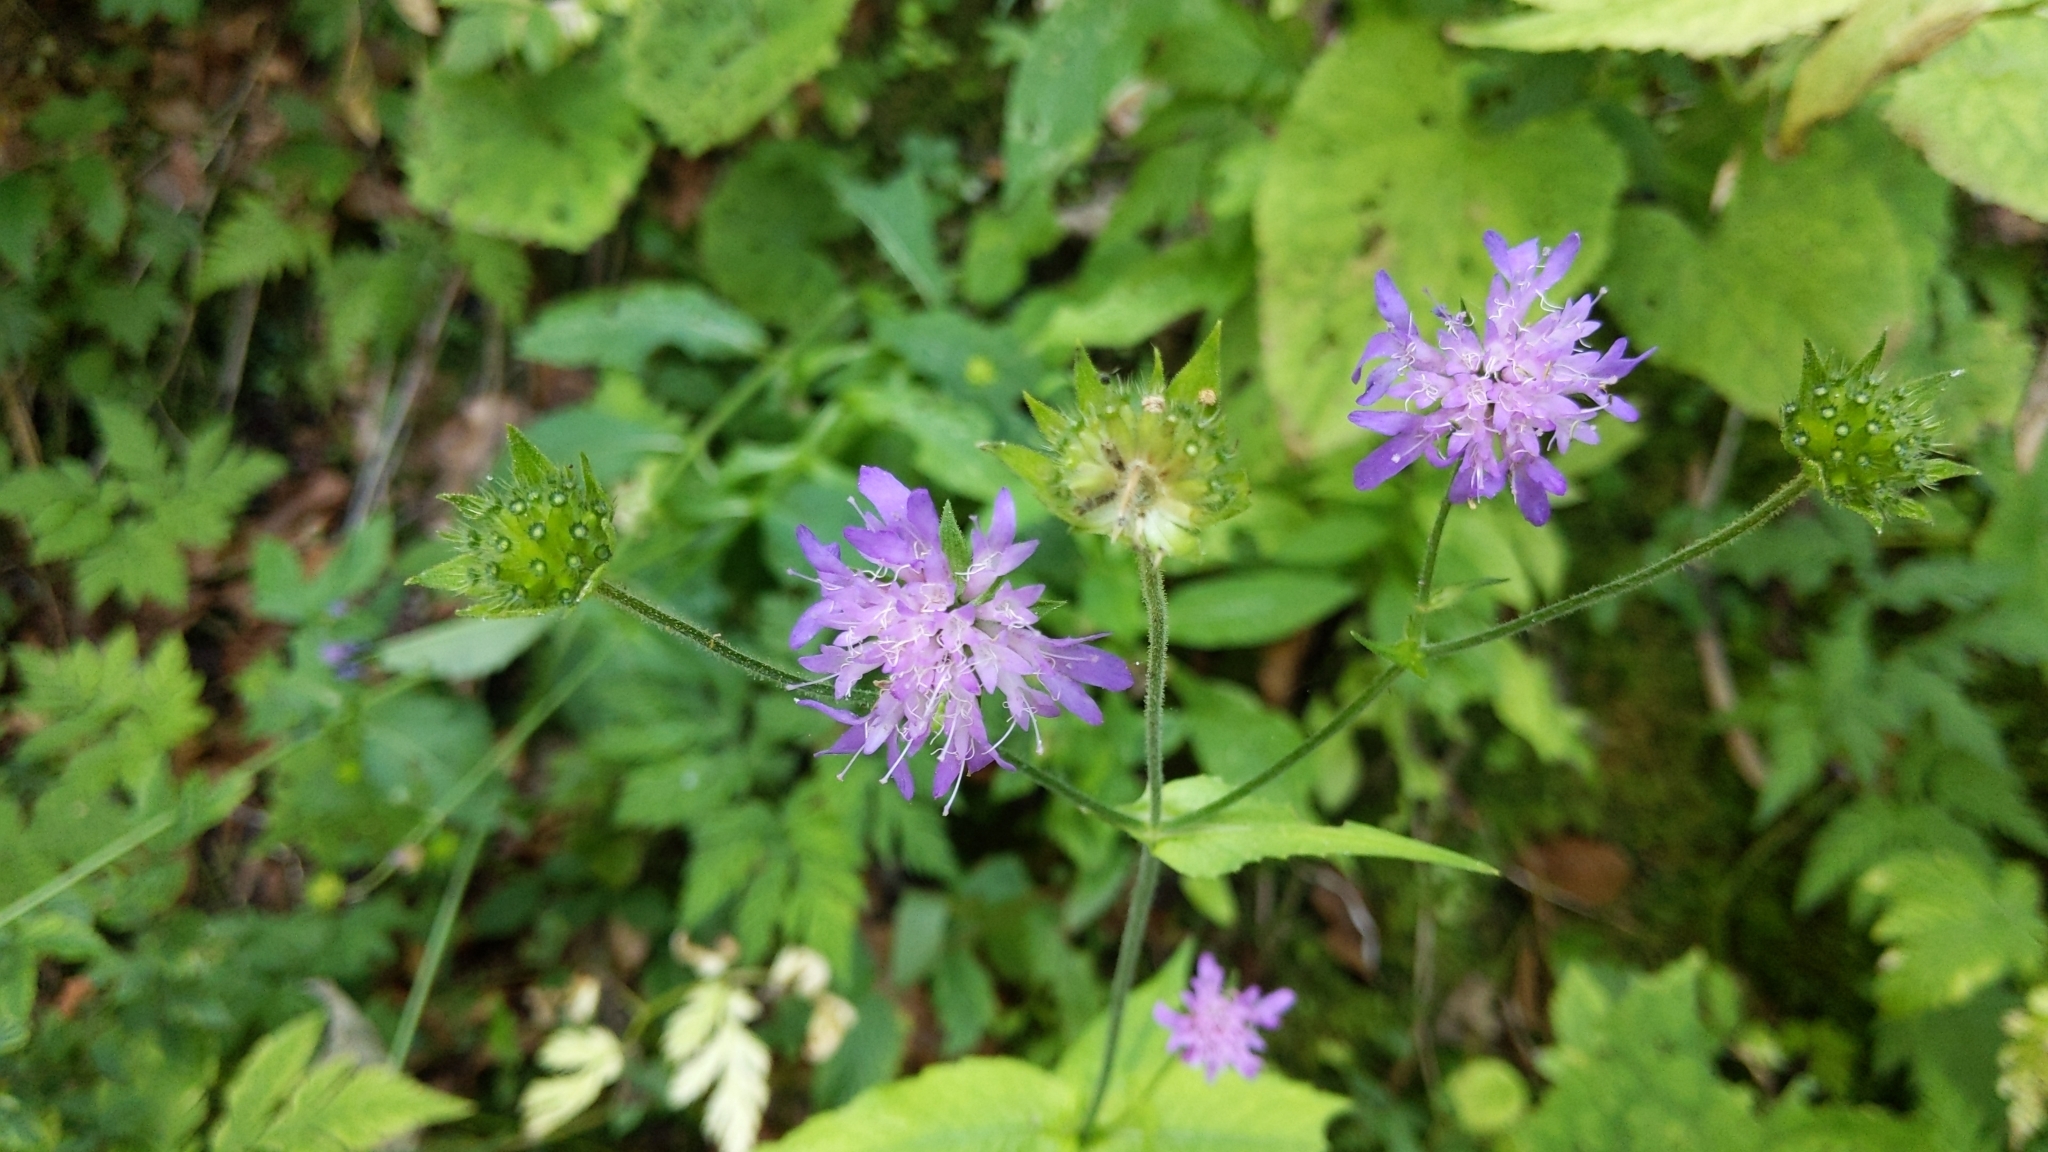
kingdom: Plantae
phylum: Tracheophyta
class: Magnoliopsida
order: Dipsacales
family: Caprifoliaceae
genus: Knautia
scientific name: Knautia dipsacifolia
